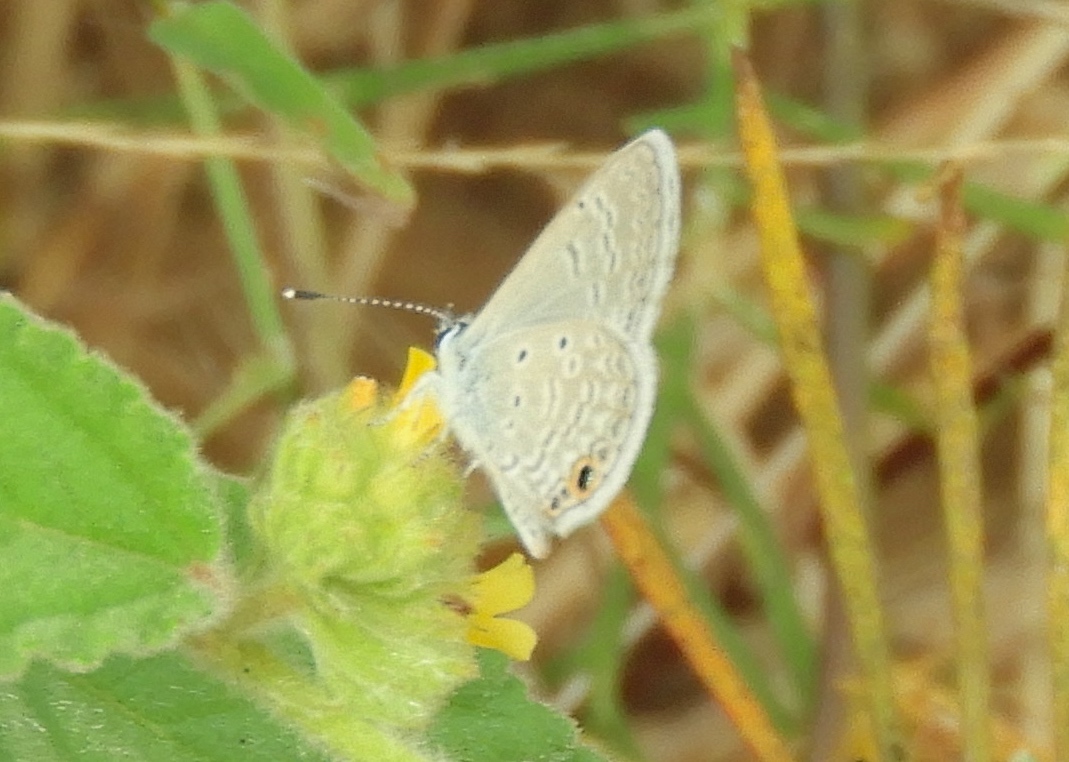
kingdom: Animalia
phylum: Arthropoda
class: Insecta
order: Lepidoptera
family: Lycaenidae
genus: Hemiargus
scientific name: Hemiargus ceraunus
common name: Ceraunus blue
